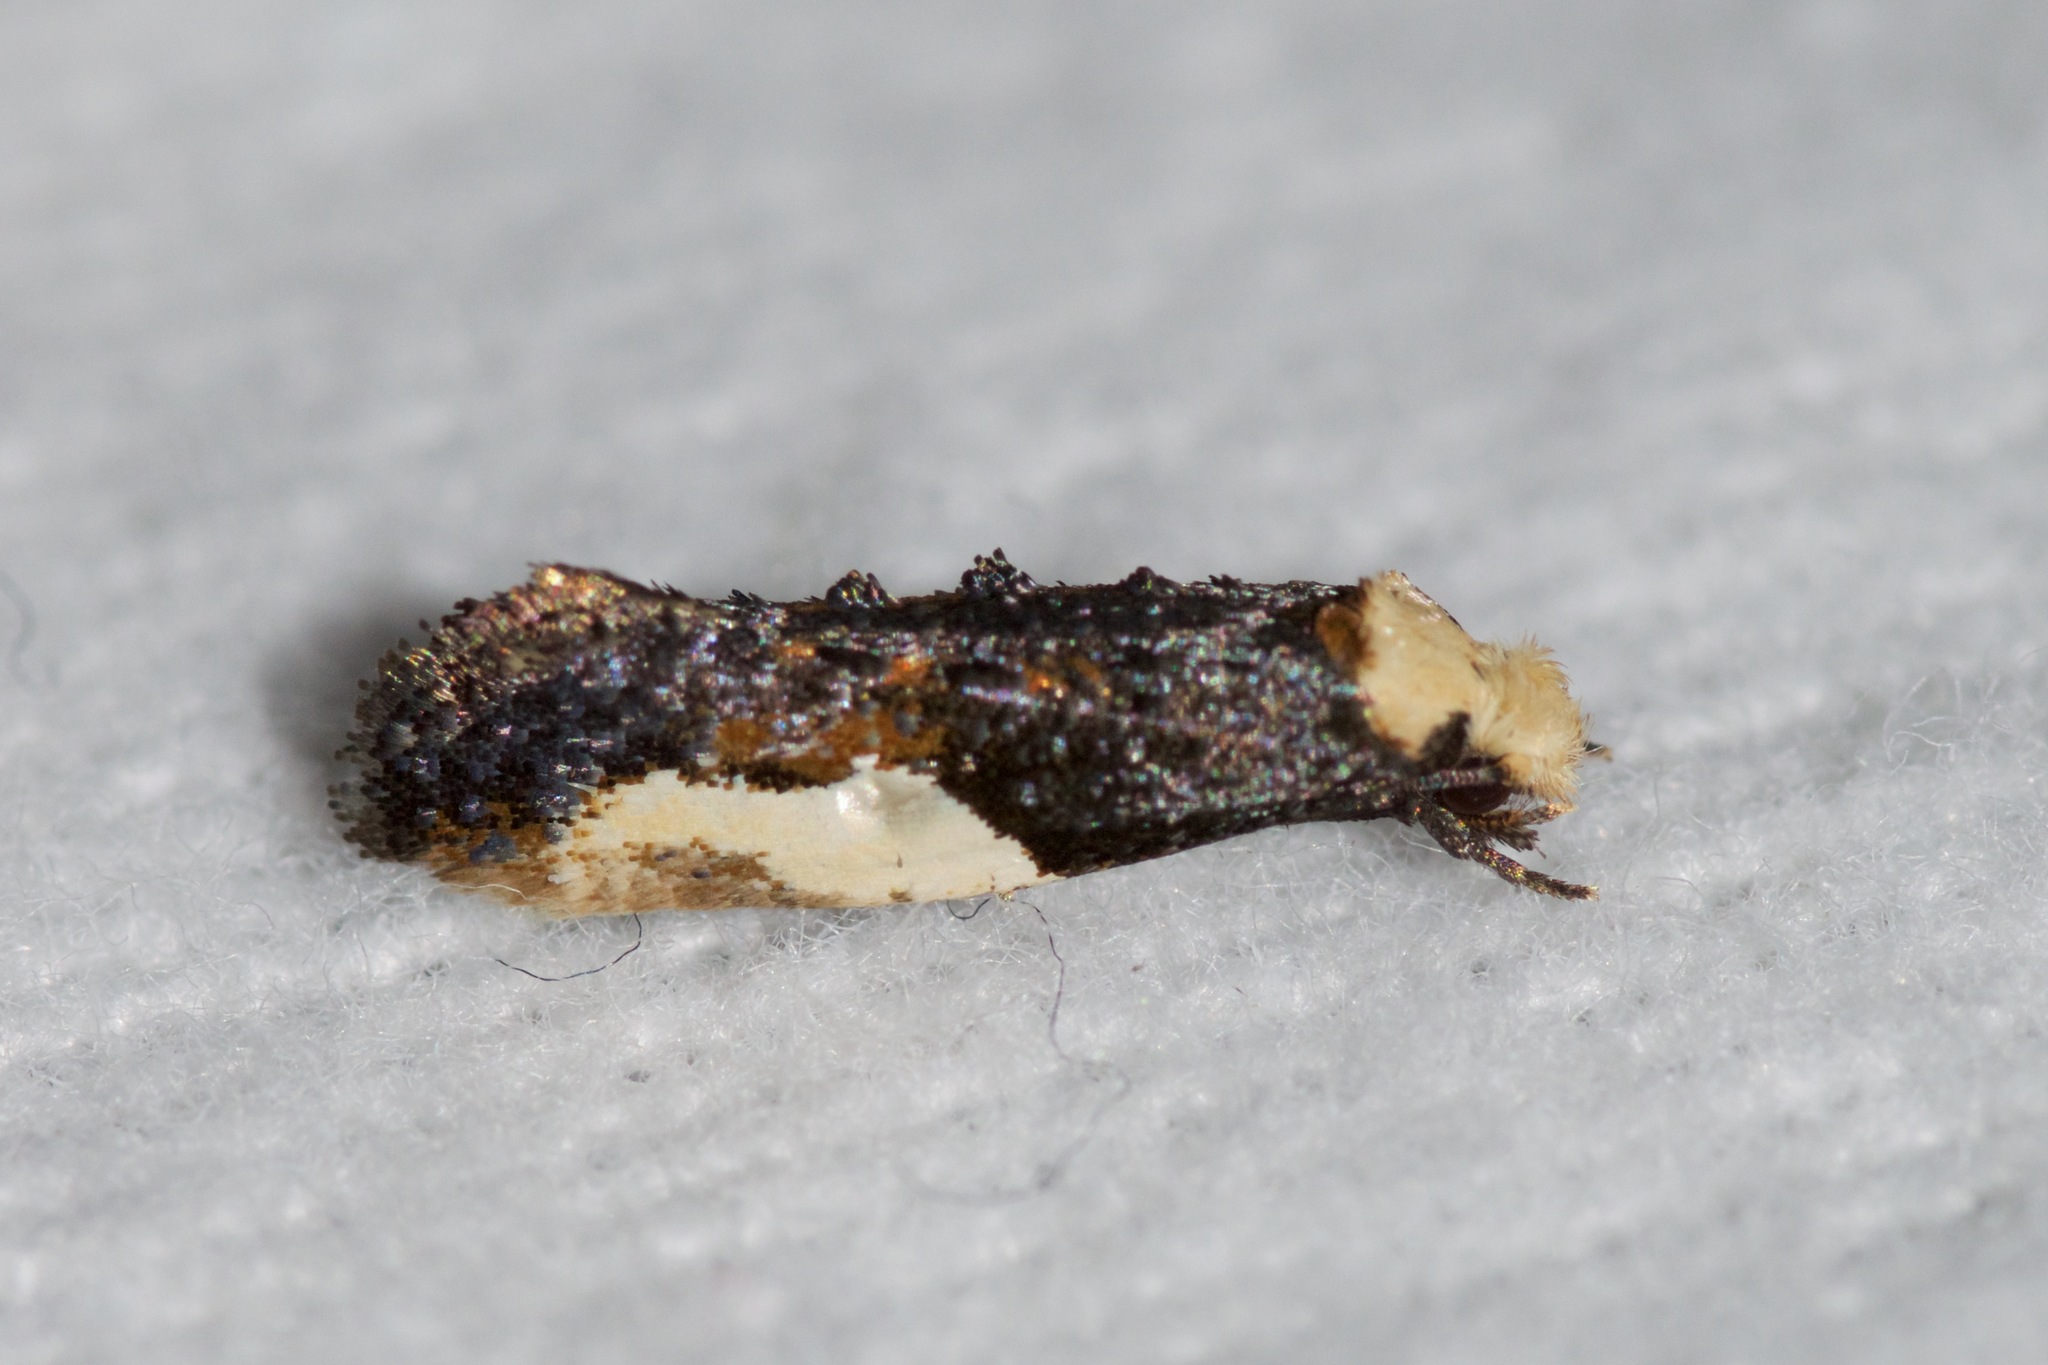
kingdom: Animalia
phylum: Arthropoda
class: Insecta
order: Lepidoptera
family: Tineidae
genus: Monopis
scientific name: Monopis longella
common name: Pavlovski's monopis moth
